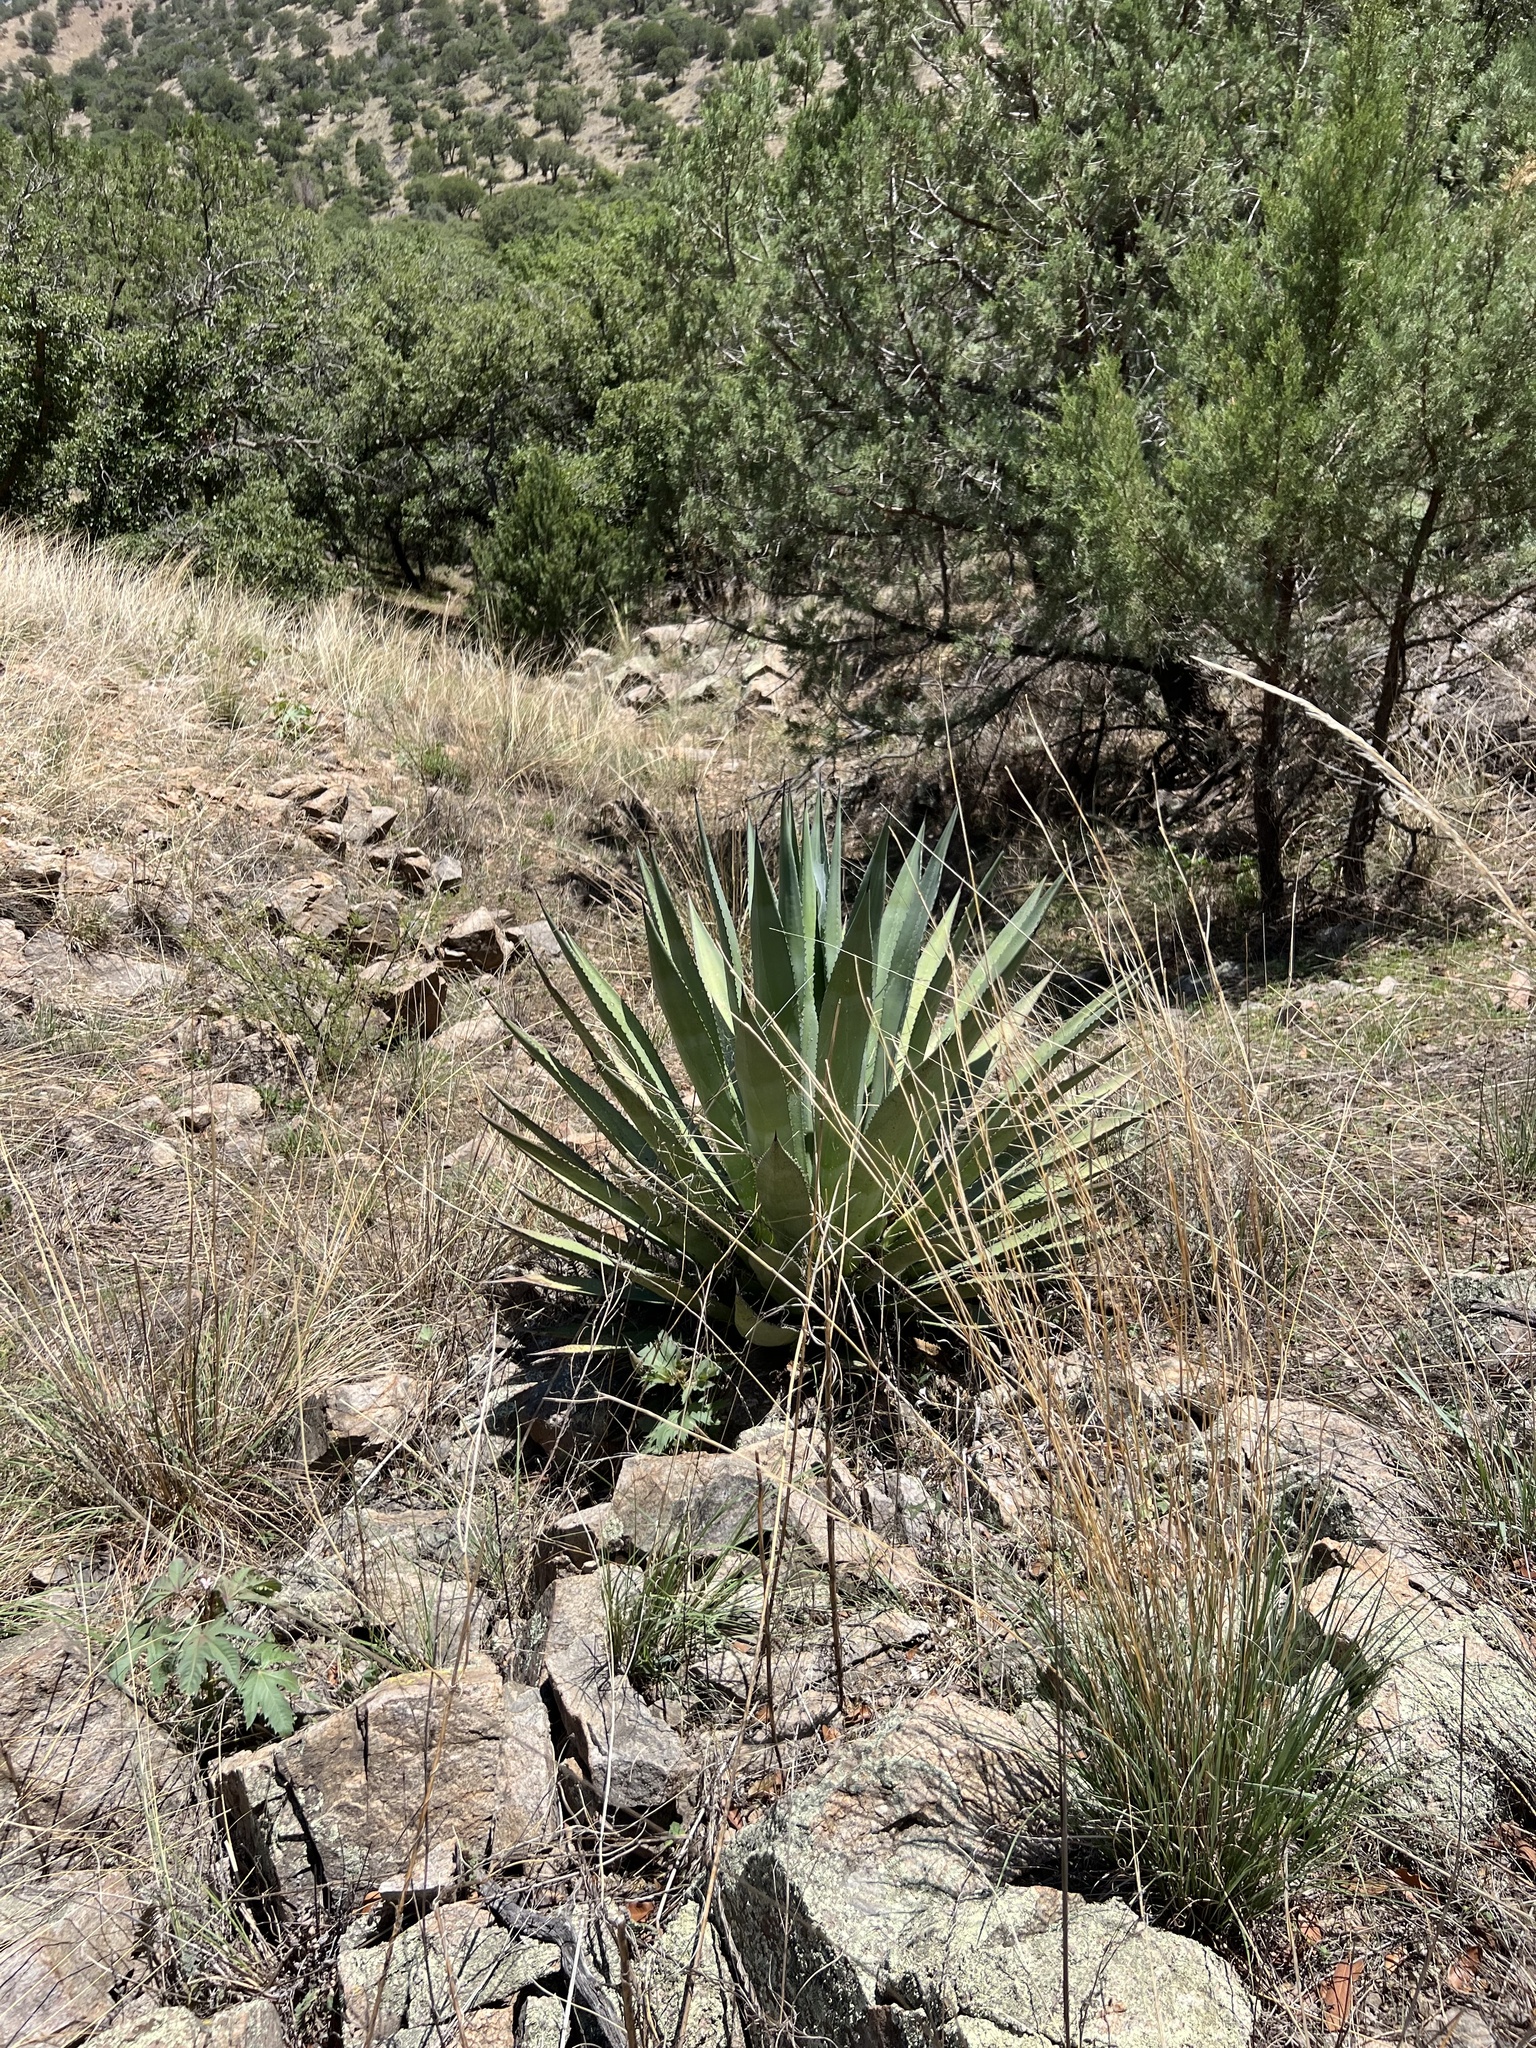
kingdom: Plantae
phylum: Tracheophyta
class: Liliopsida
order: Asparagales
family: Asparagaceae
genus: Agave
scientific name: Agave palmeri
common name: Palmer agave
